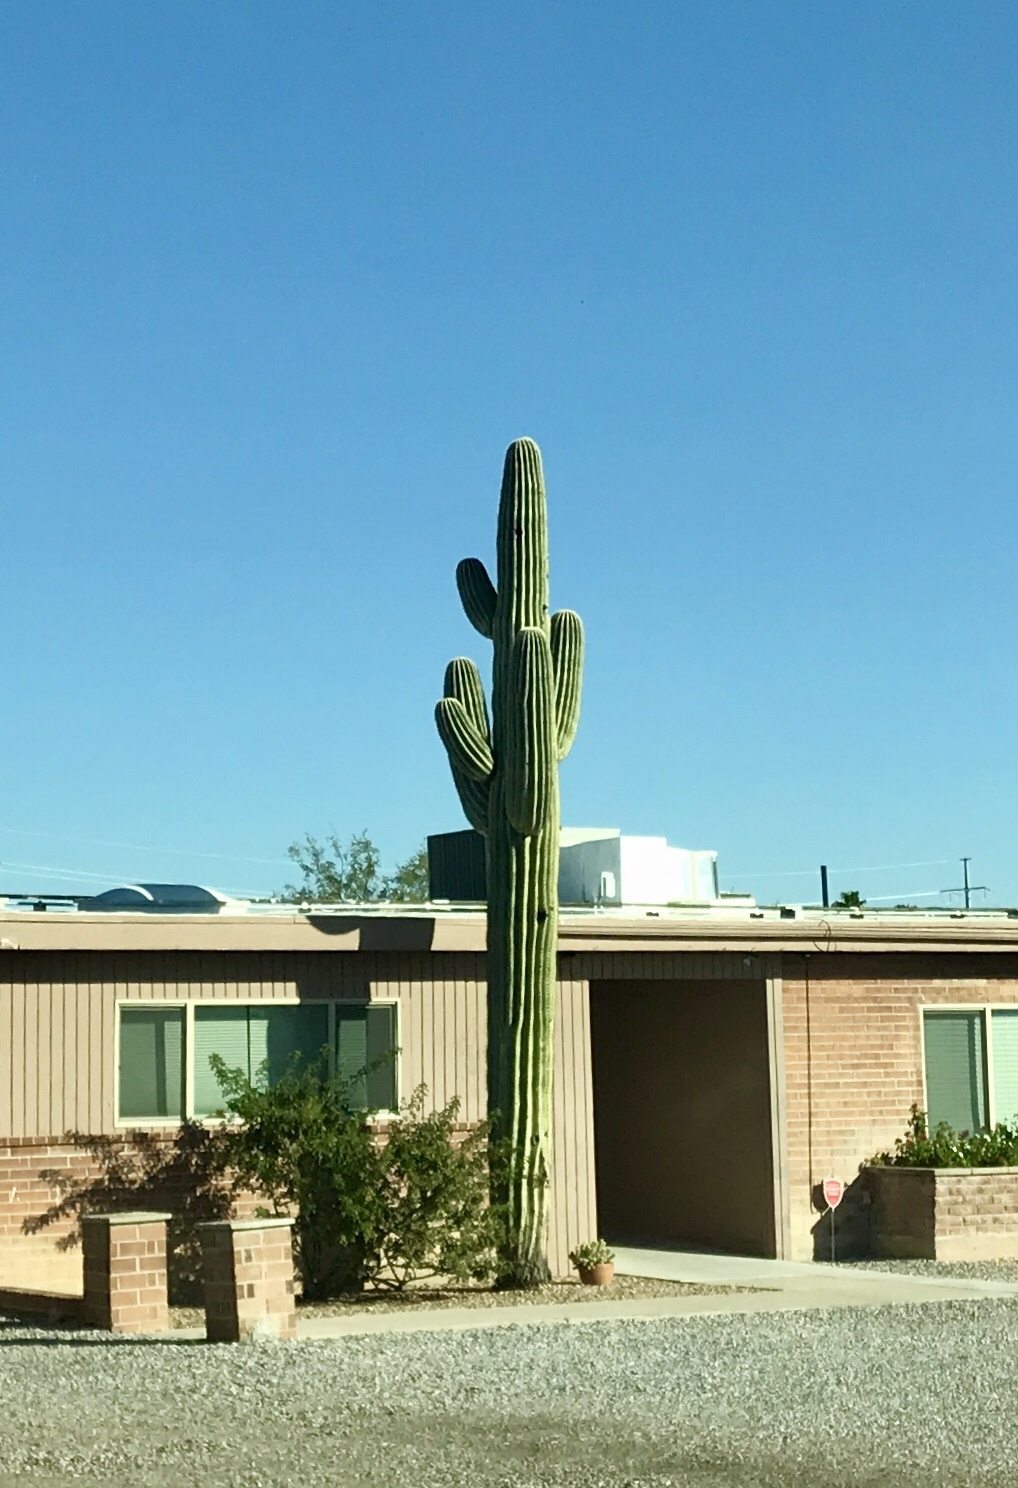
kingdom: Plantae
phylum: Tracheophyta
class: Magnoliopsida
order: Caryophyllales
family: Cactaceae
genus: Carnegiea
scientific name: Carnegiea gigantea
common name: Saguaro
